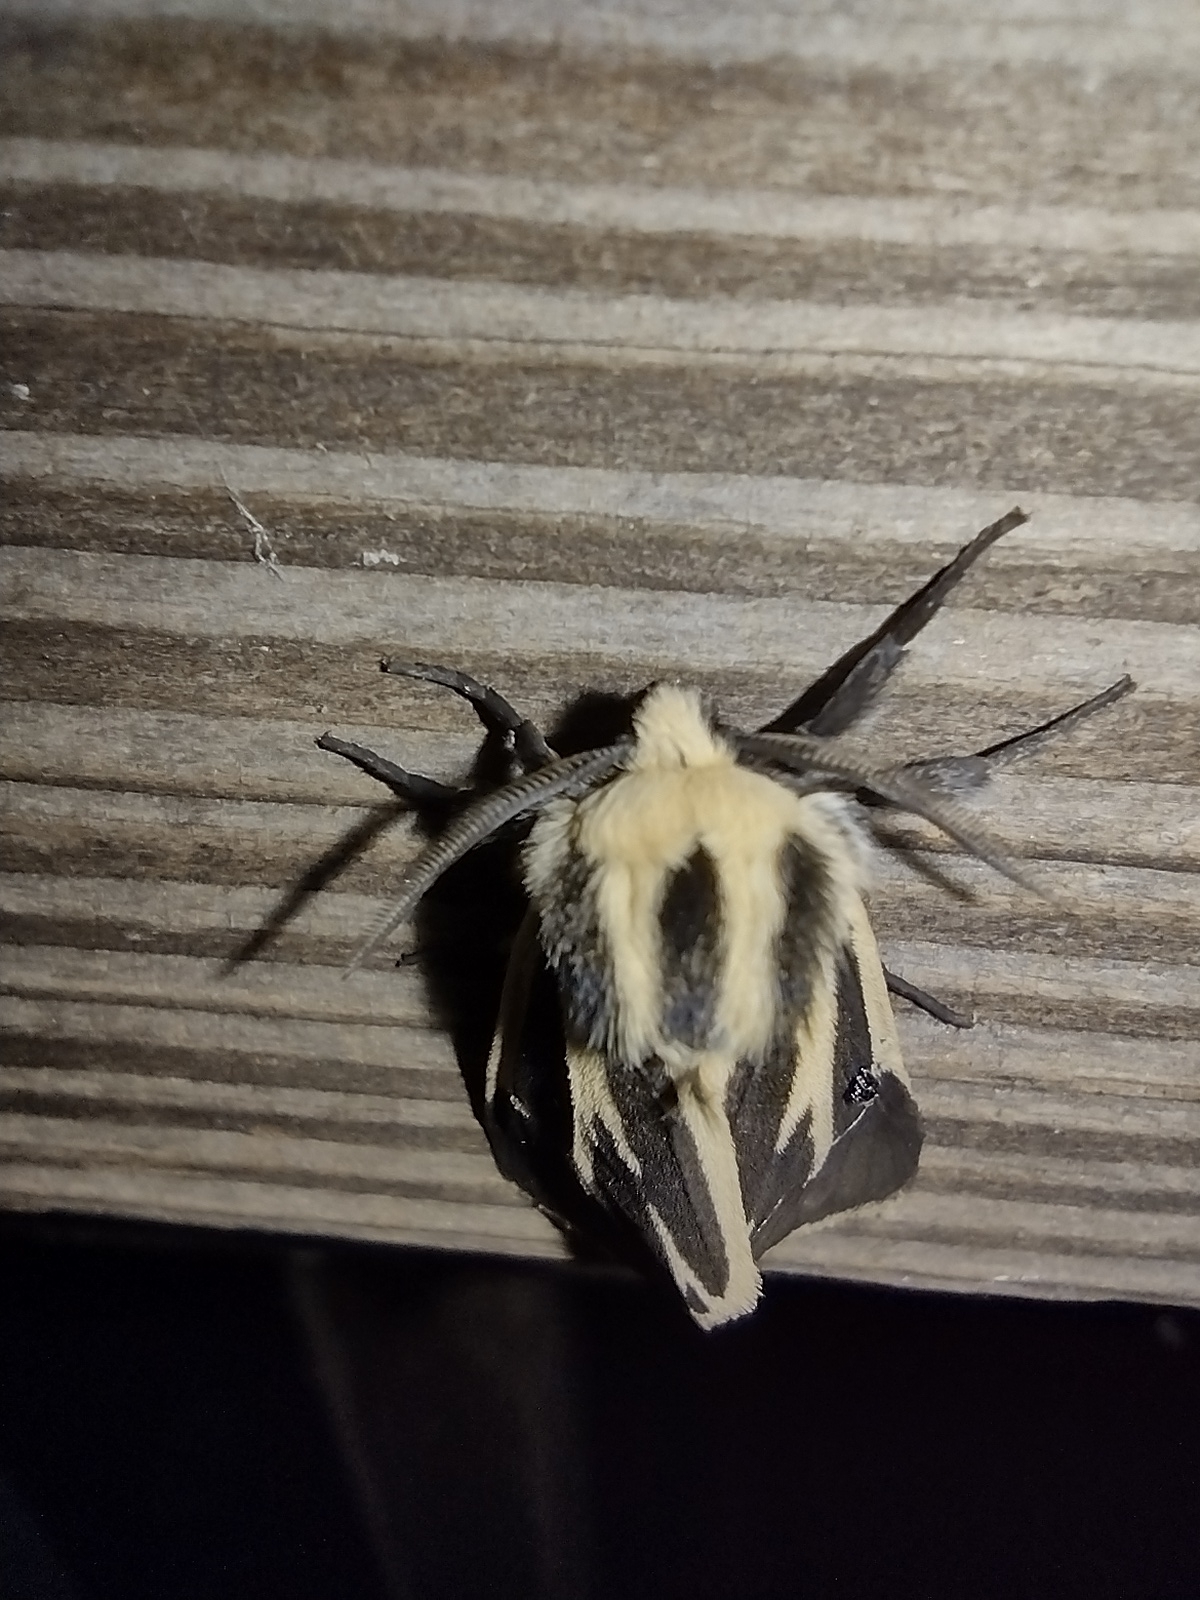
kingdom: Animalia
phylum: Arthropoda
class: Insecta
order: Lepidoptera
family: Erebidae
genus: Apantesis
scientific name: Apantesis nais
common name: Nais tiger moth
